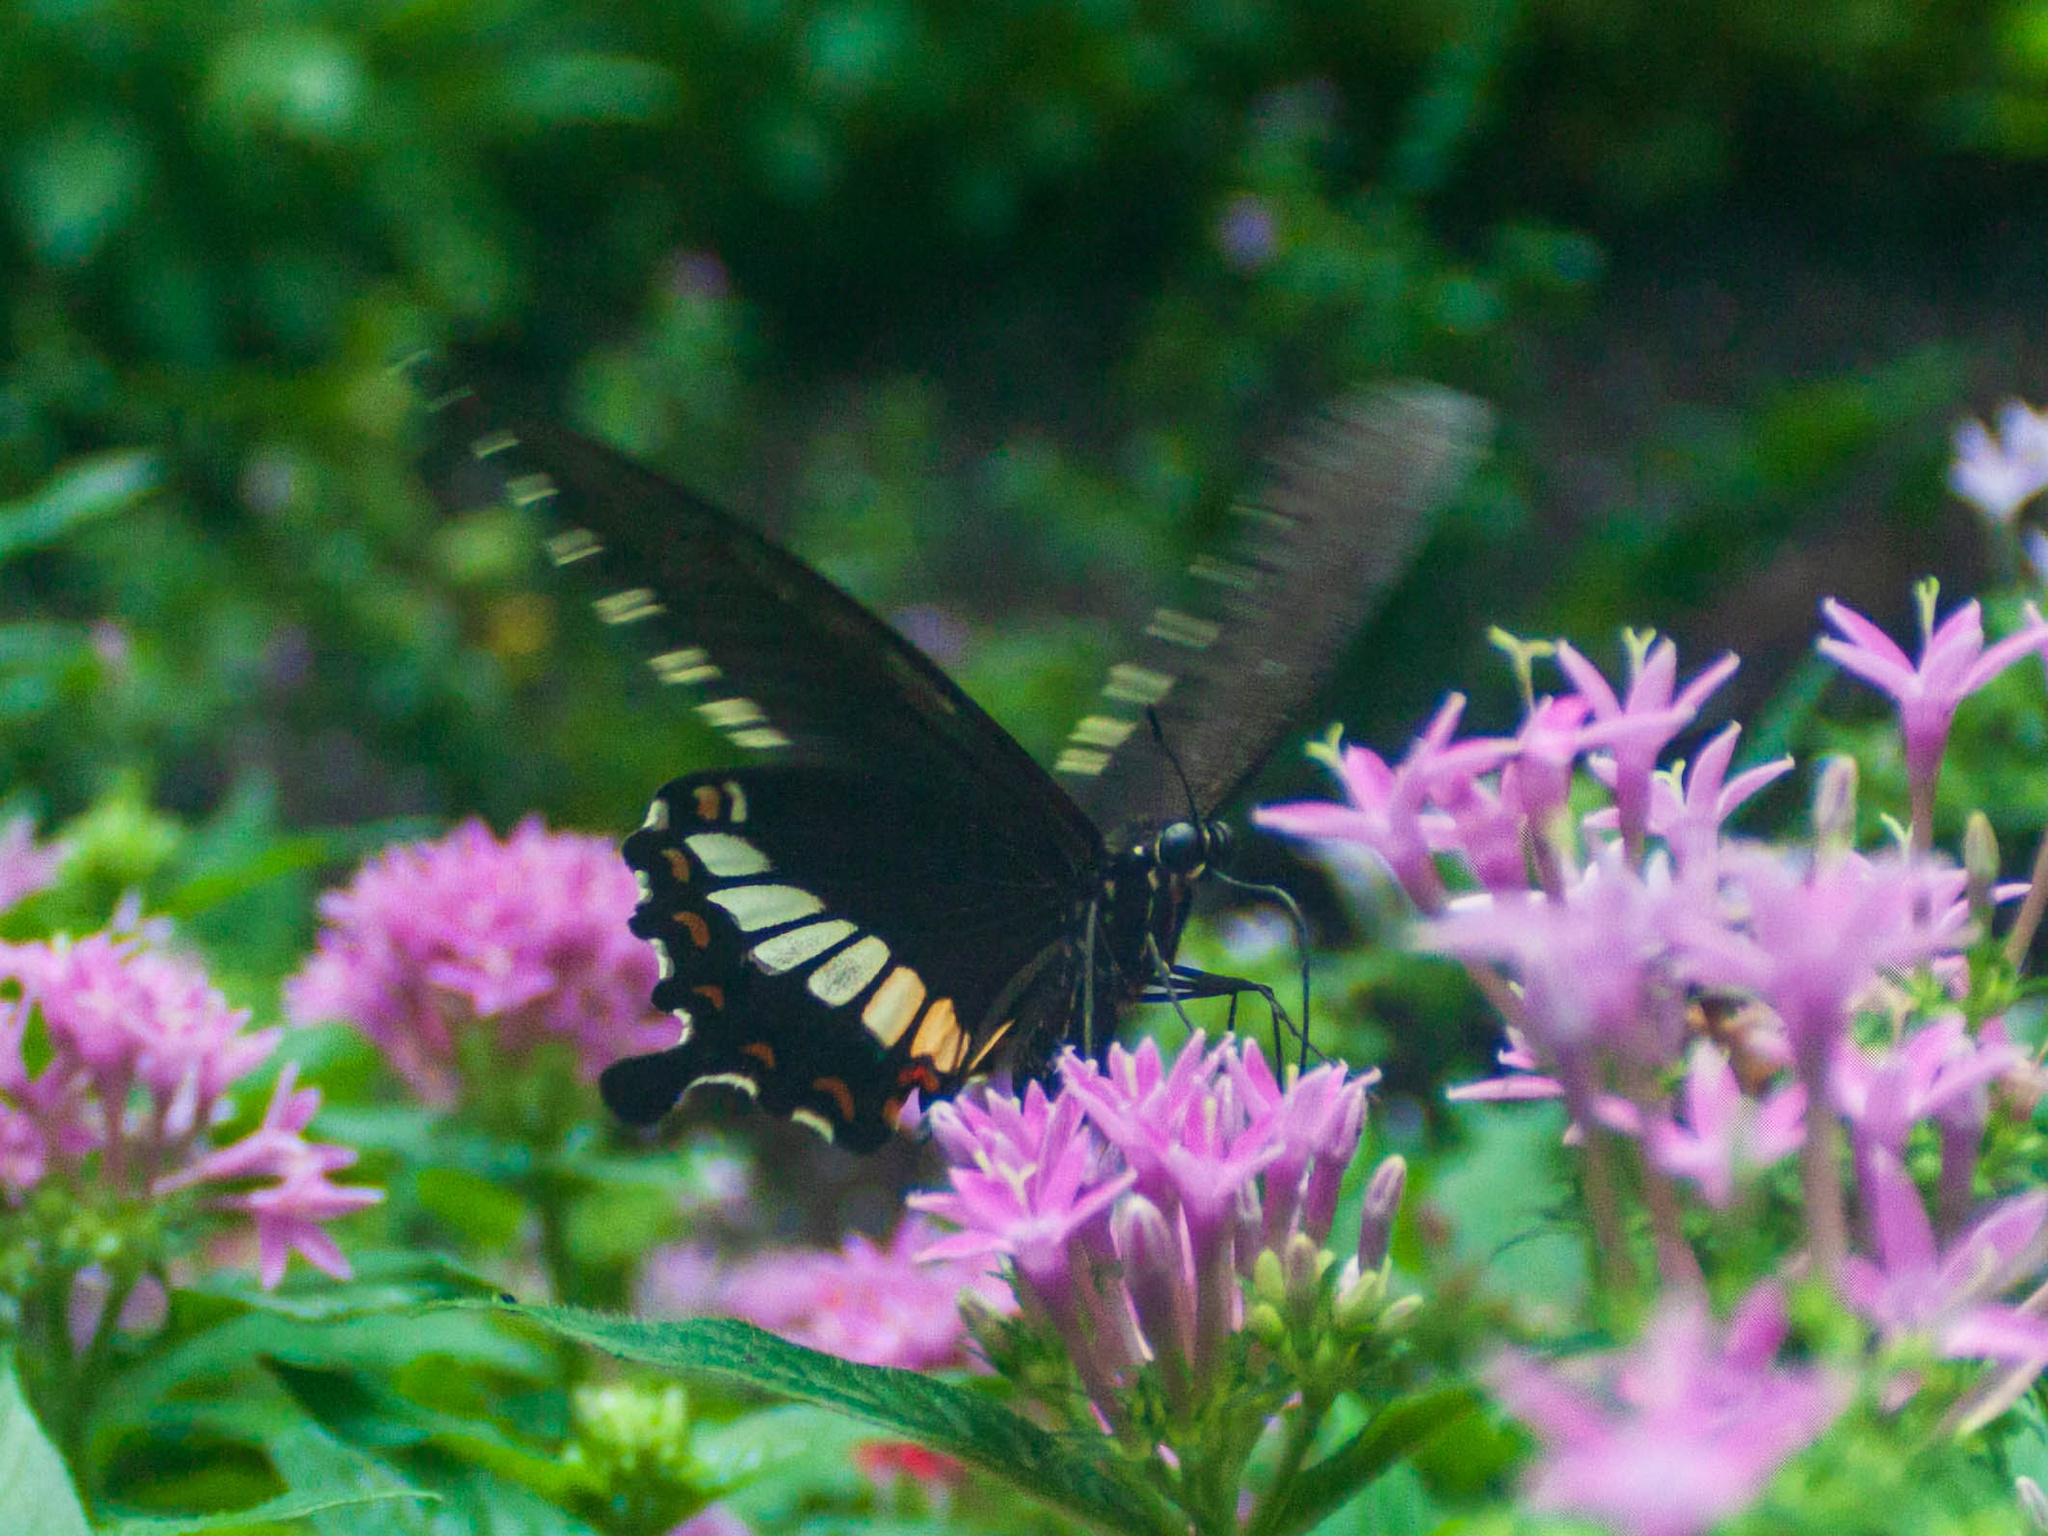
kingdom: Animalia
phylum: Arthropoda
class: Insecta
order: Lepidoptera
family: Papilionidae
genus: Papilio
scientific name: Papilio polytes
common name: Common mormon
